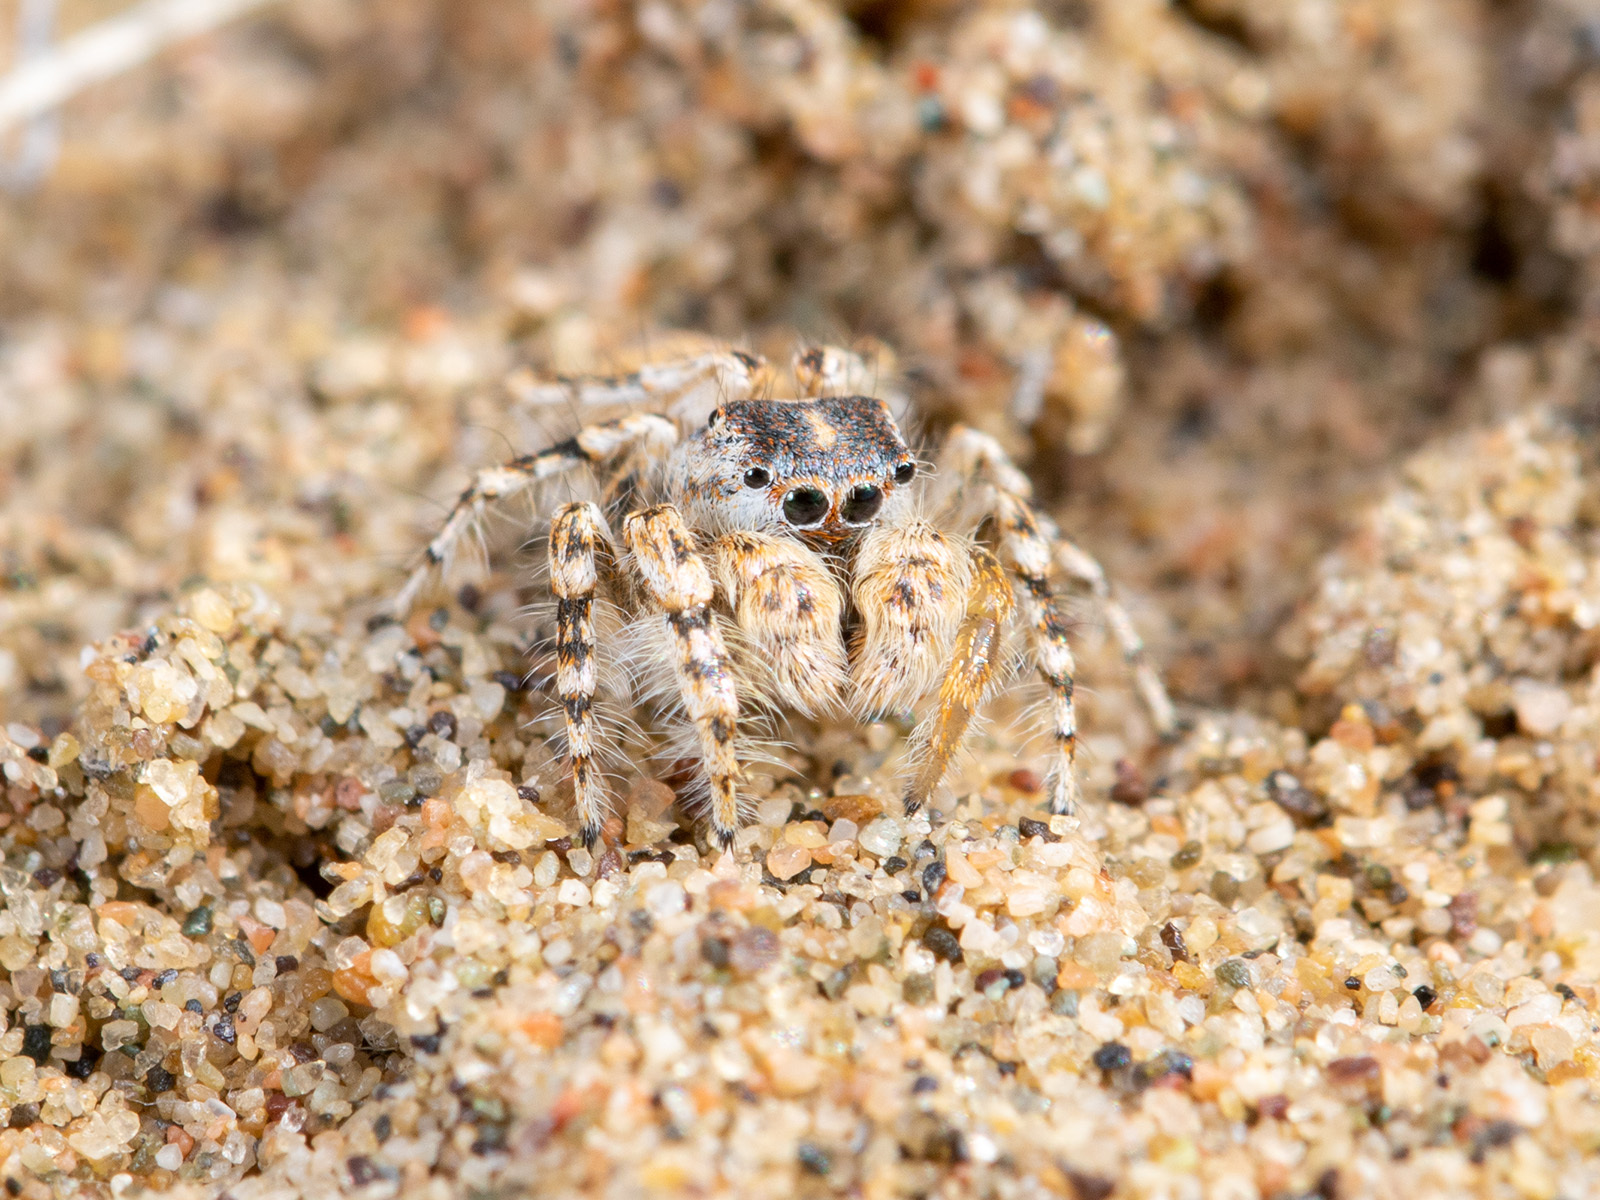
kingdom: Animalia
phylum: Arthropoda
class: Arachnida
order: Araneae
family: Salticidae
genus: Yllenus
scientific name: Yllenus turkestanicus
